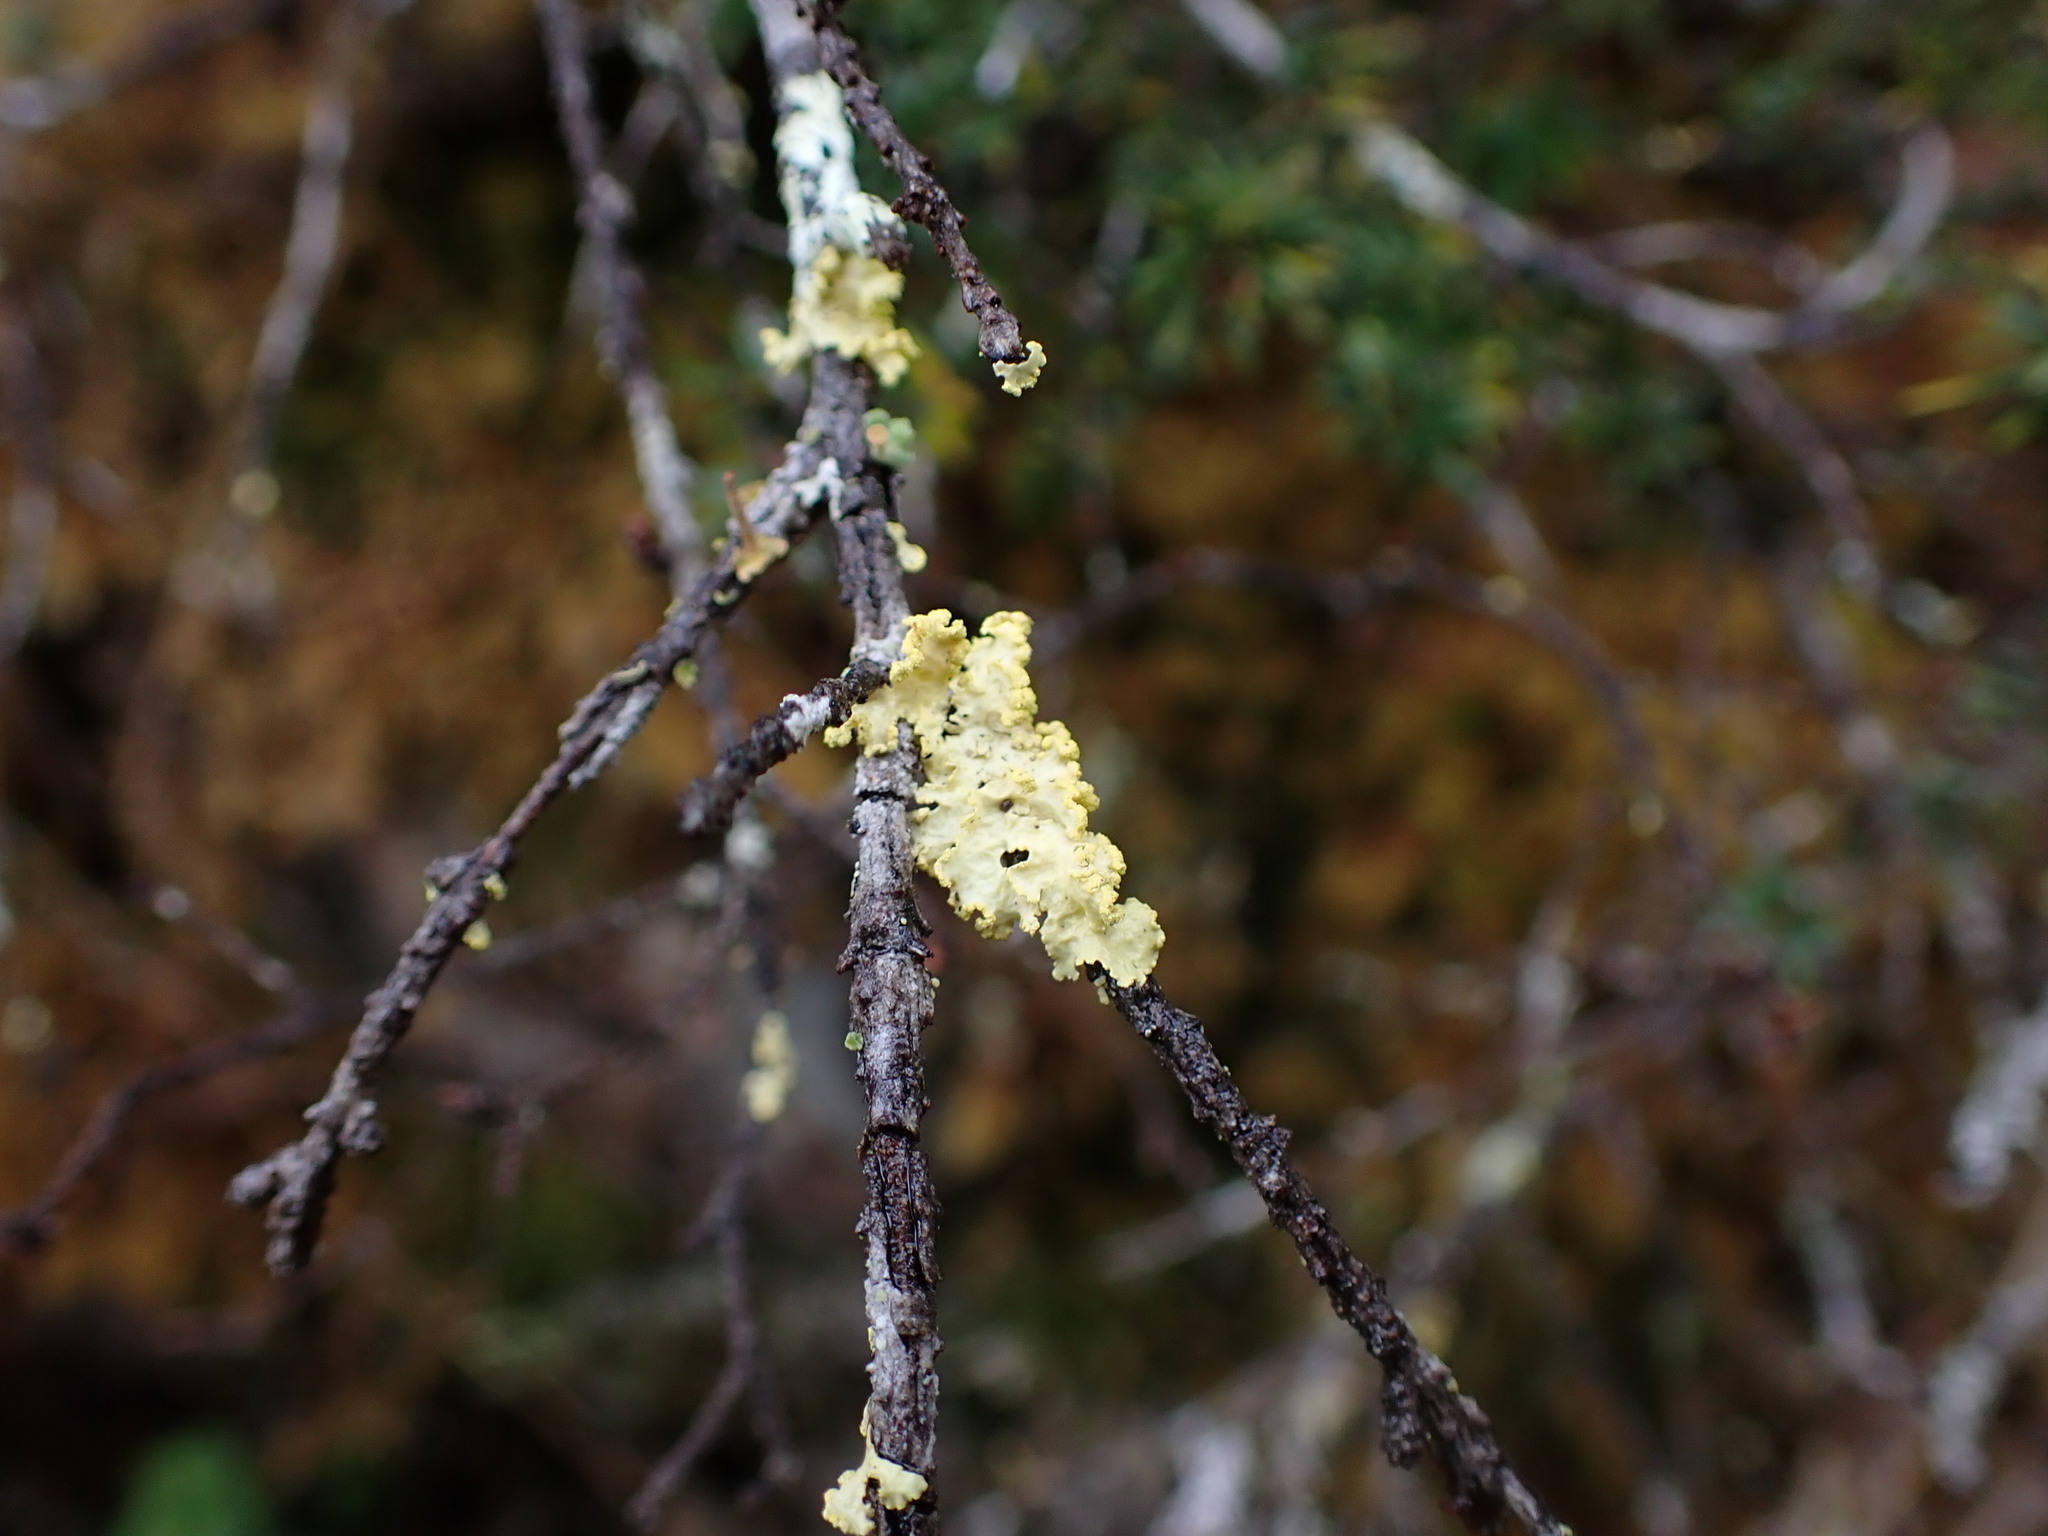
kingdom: Fungi
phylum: Ascomycota
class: Lecanoromycetes
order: Lecanorales
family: Parmeliaceae
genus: Vulpicida
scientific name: Vulpicida pinastri
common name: Powdered sunshine lichen
